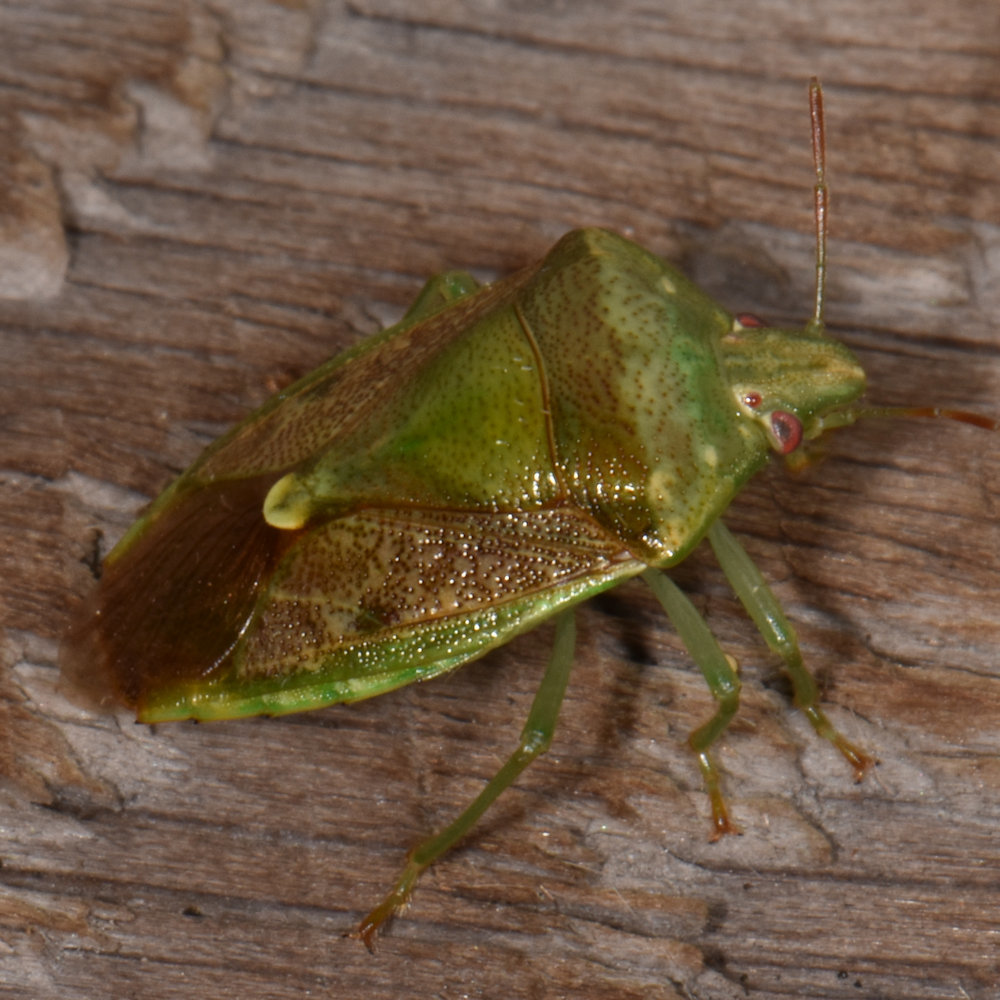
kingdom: Animalia
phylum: Arthropoda
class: Insecta
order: Hemiptera
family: Pentatomidae
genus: Banasa
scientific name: Banasa dimidiata
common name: Green burgundy stink bug
